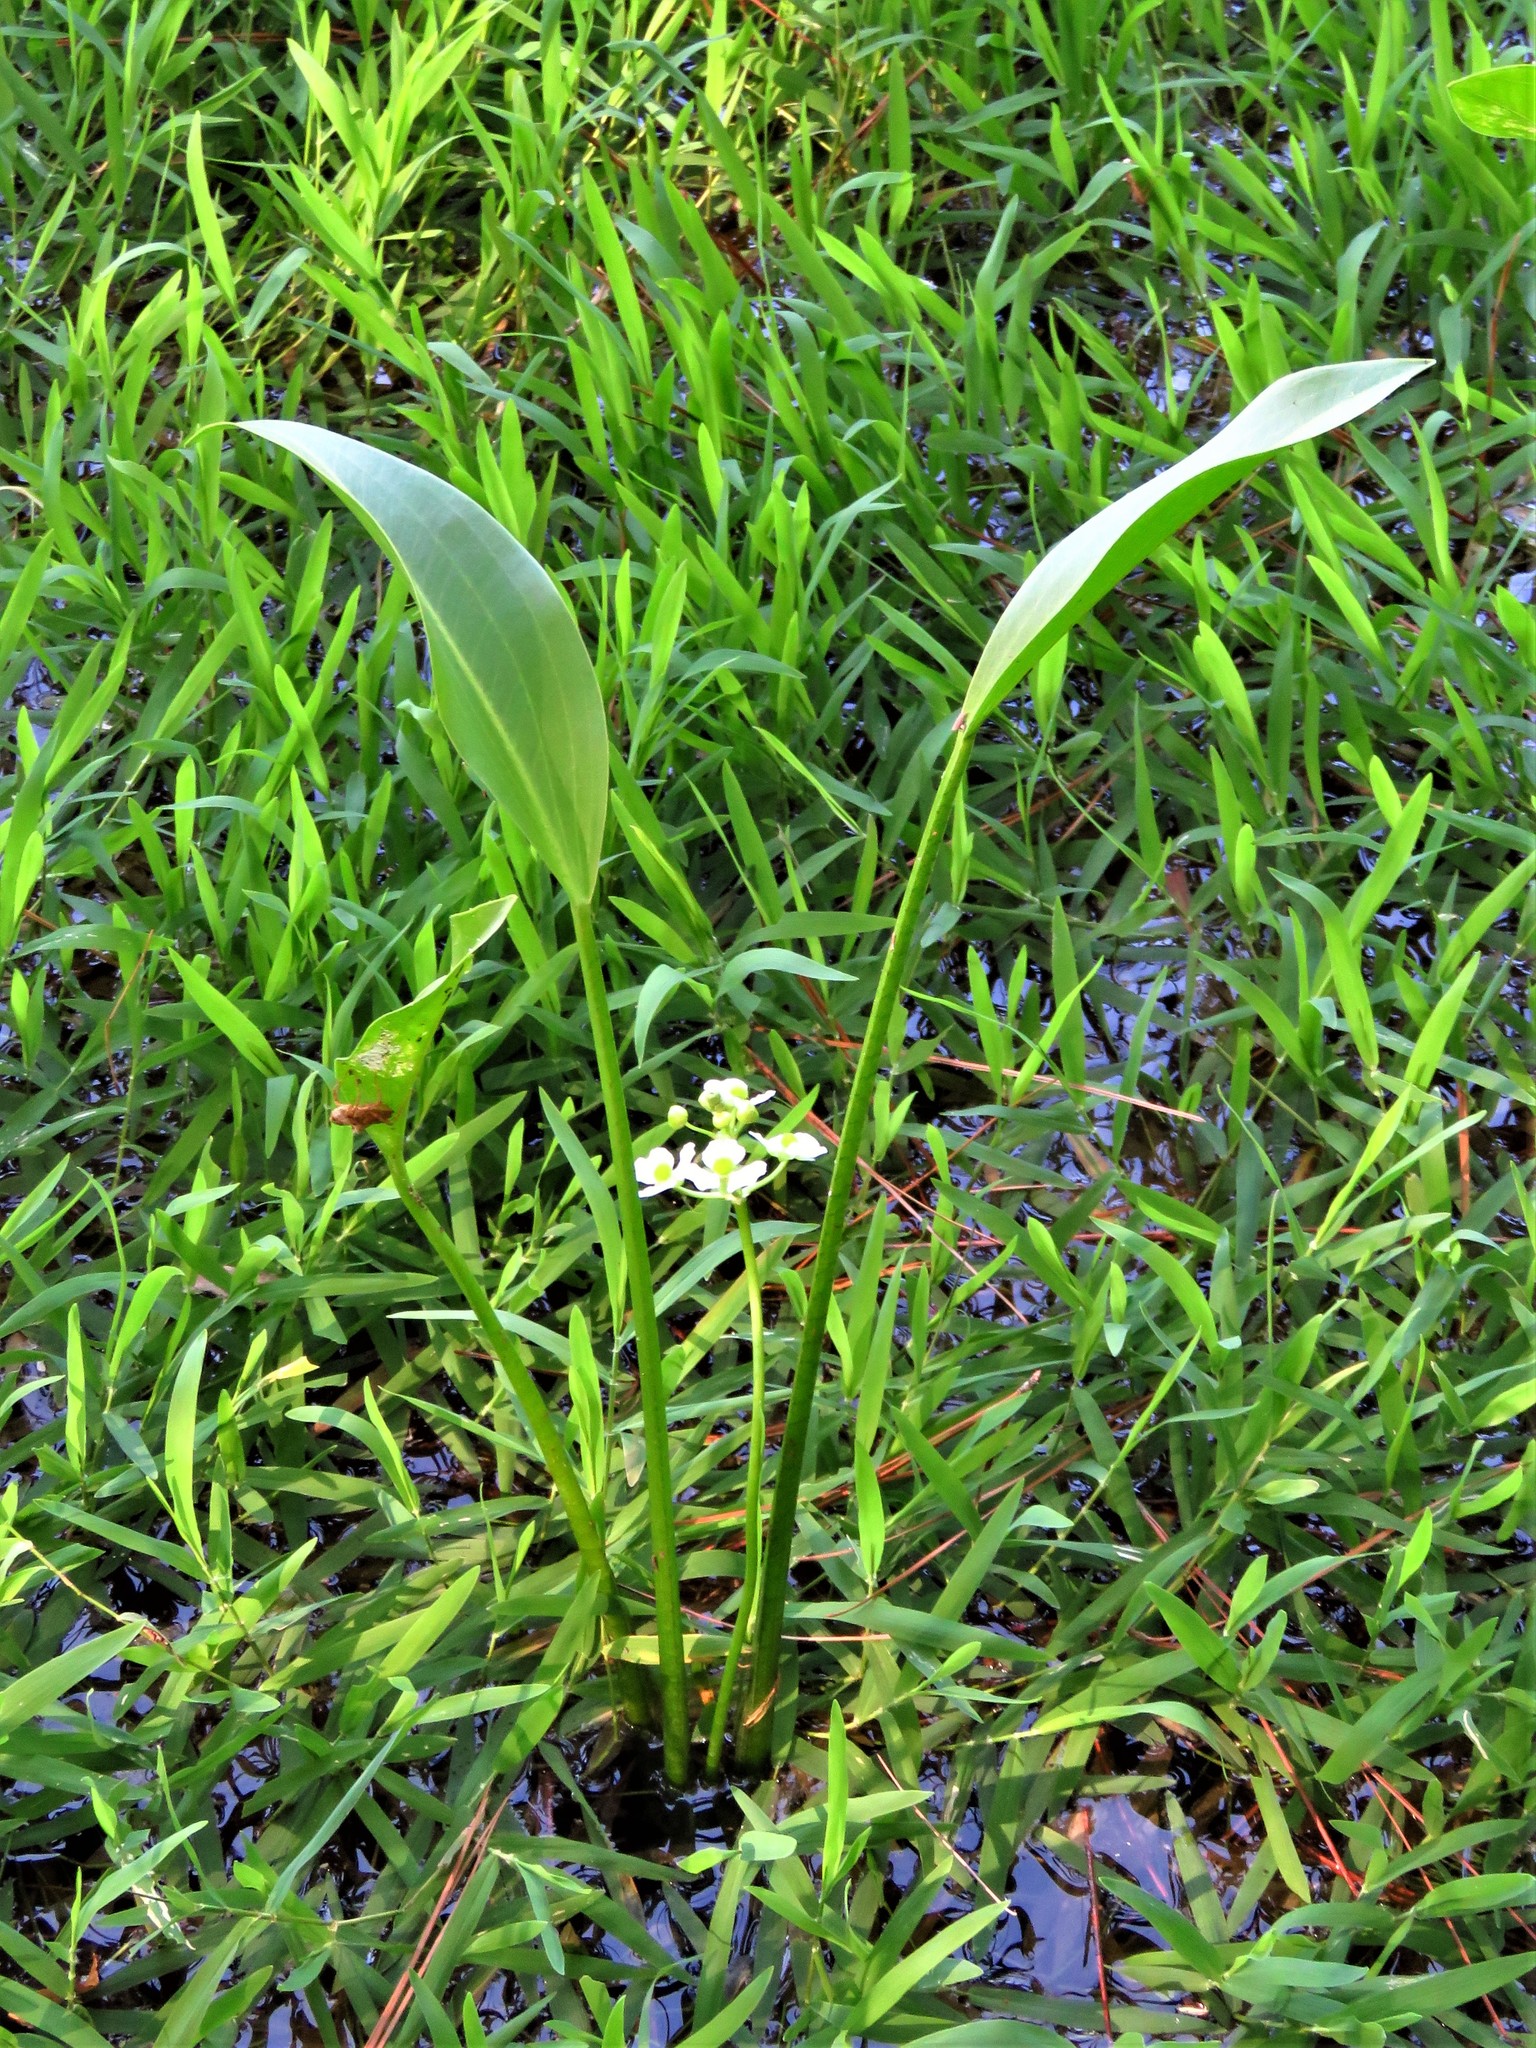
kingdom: Plantae
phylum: Tracheophyta
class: Liliopsida
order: Alismatales
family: Alismataceae
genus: Sagittaria
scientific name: Sagittaria platyphylla
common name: Broad-leaf arrowhead
